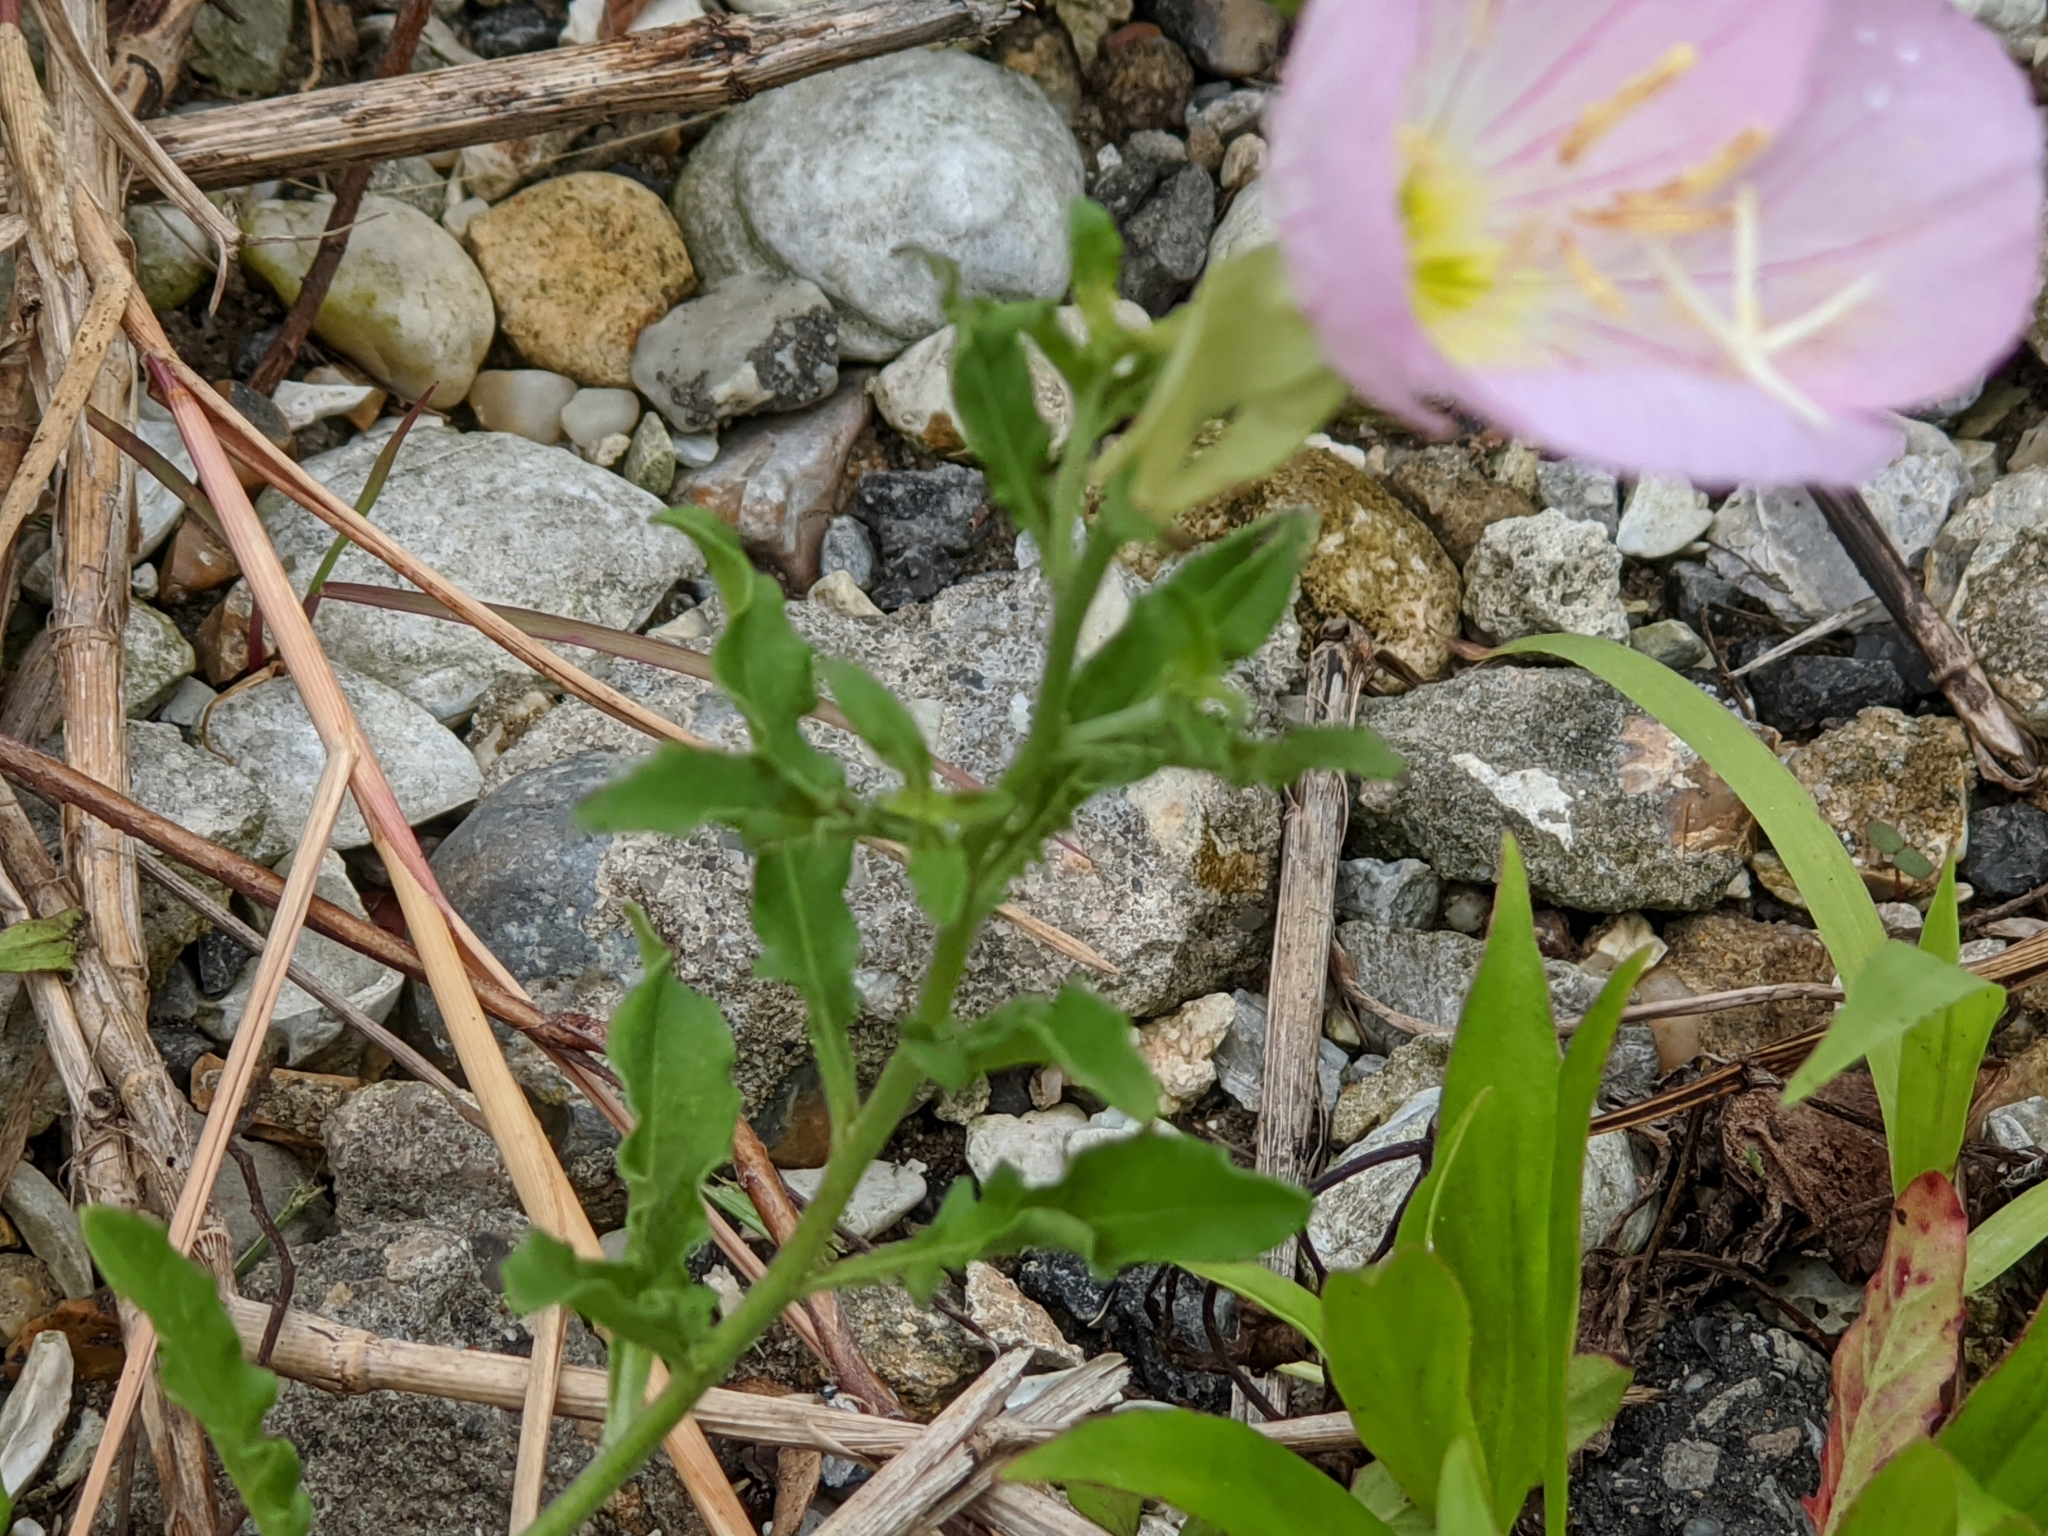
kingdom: Plantae
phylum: Tracheophyta
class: Magnoliopsida
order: Myrtales
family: Onagraceae
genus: Oenothera
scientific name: Oenothera speciosa
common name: White evening-primrose
